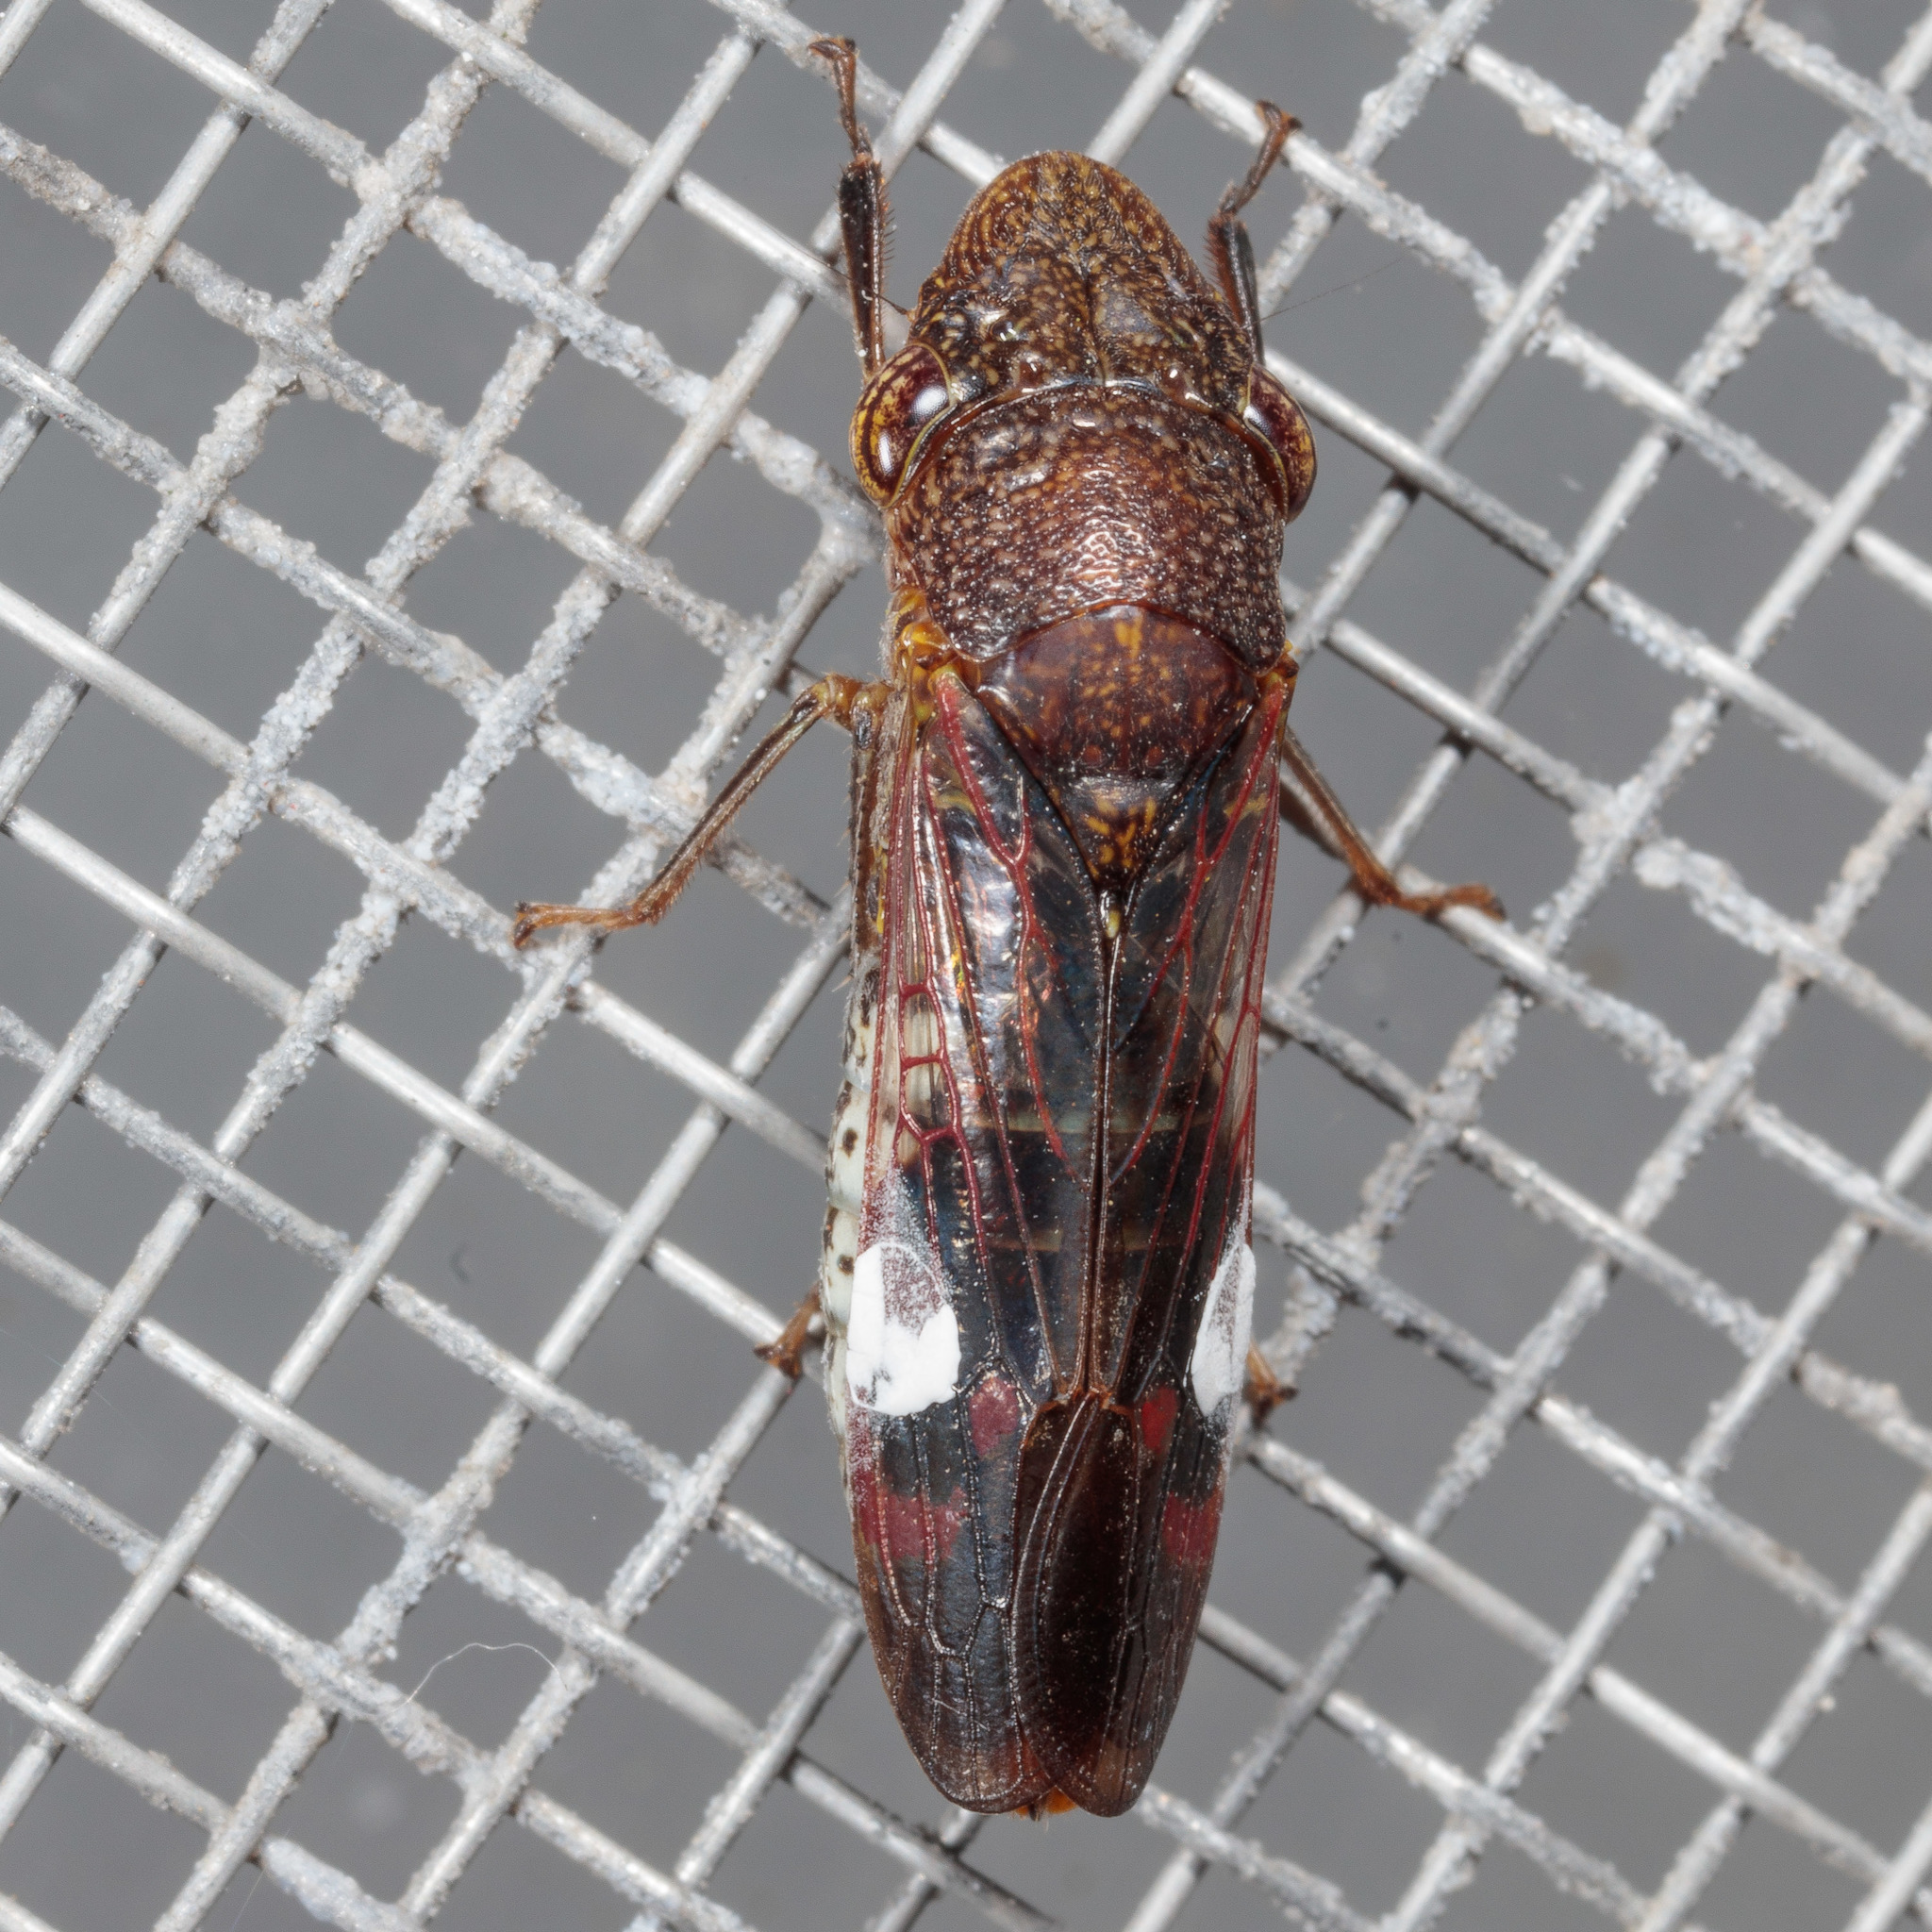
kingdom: Animalia
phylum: Arthropoda
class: Insecta
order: Hemiptera
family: Cicadellidae
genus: Homalodisca
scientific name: Homalodisca vitripennis
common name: Glassy-winged sharpshooter
